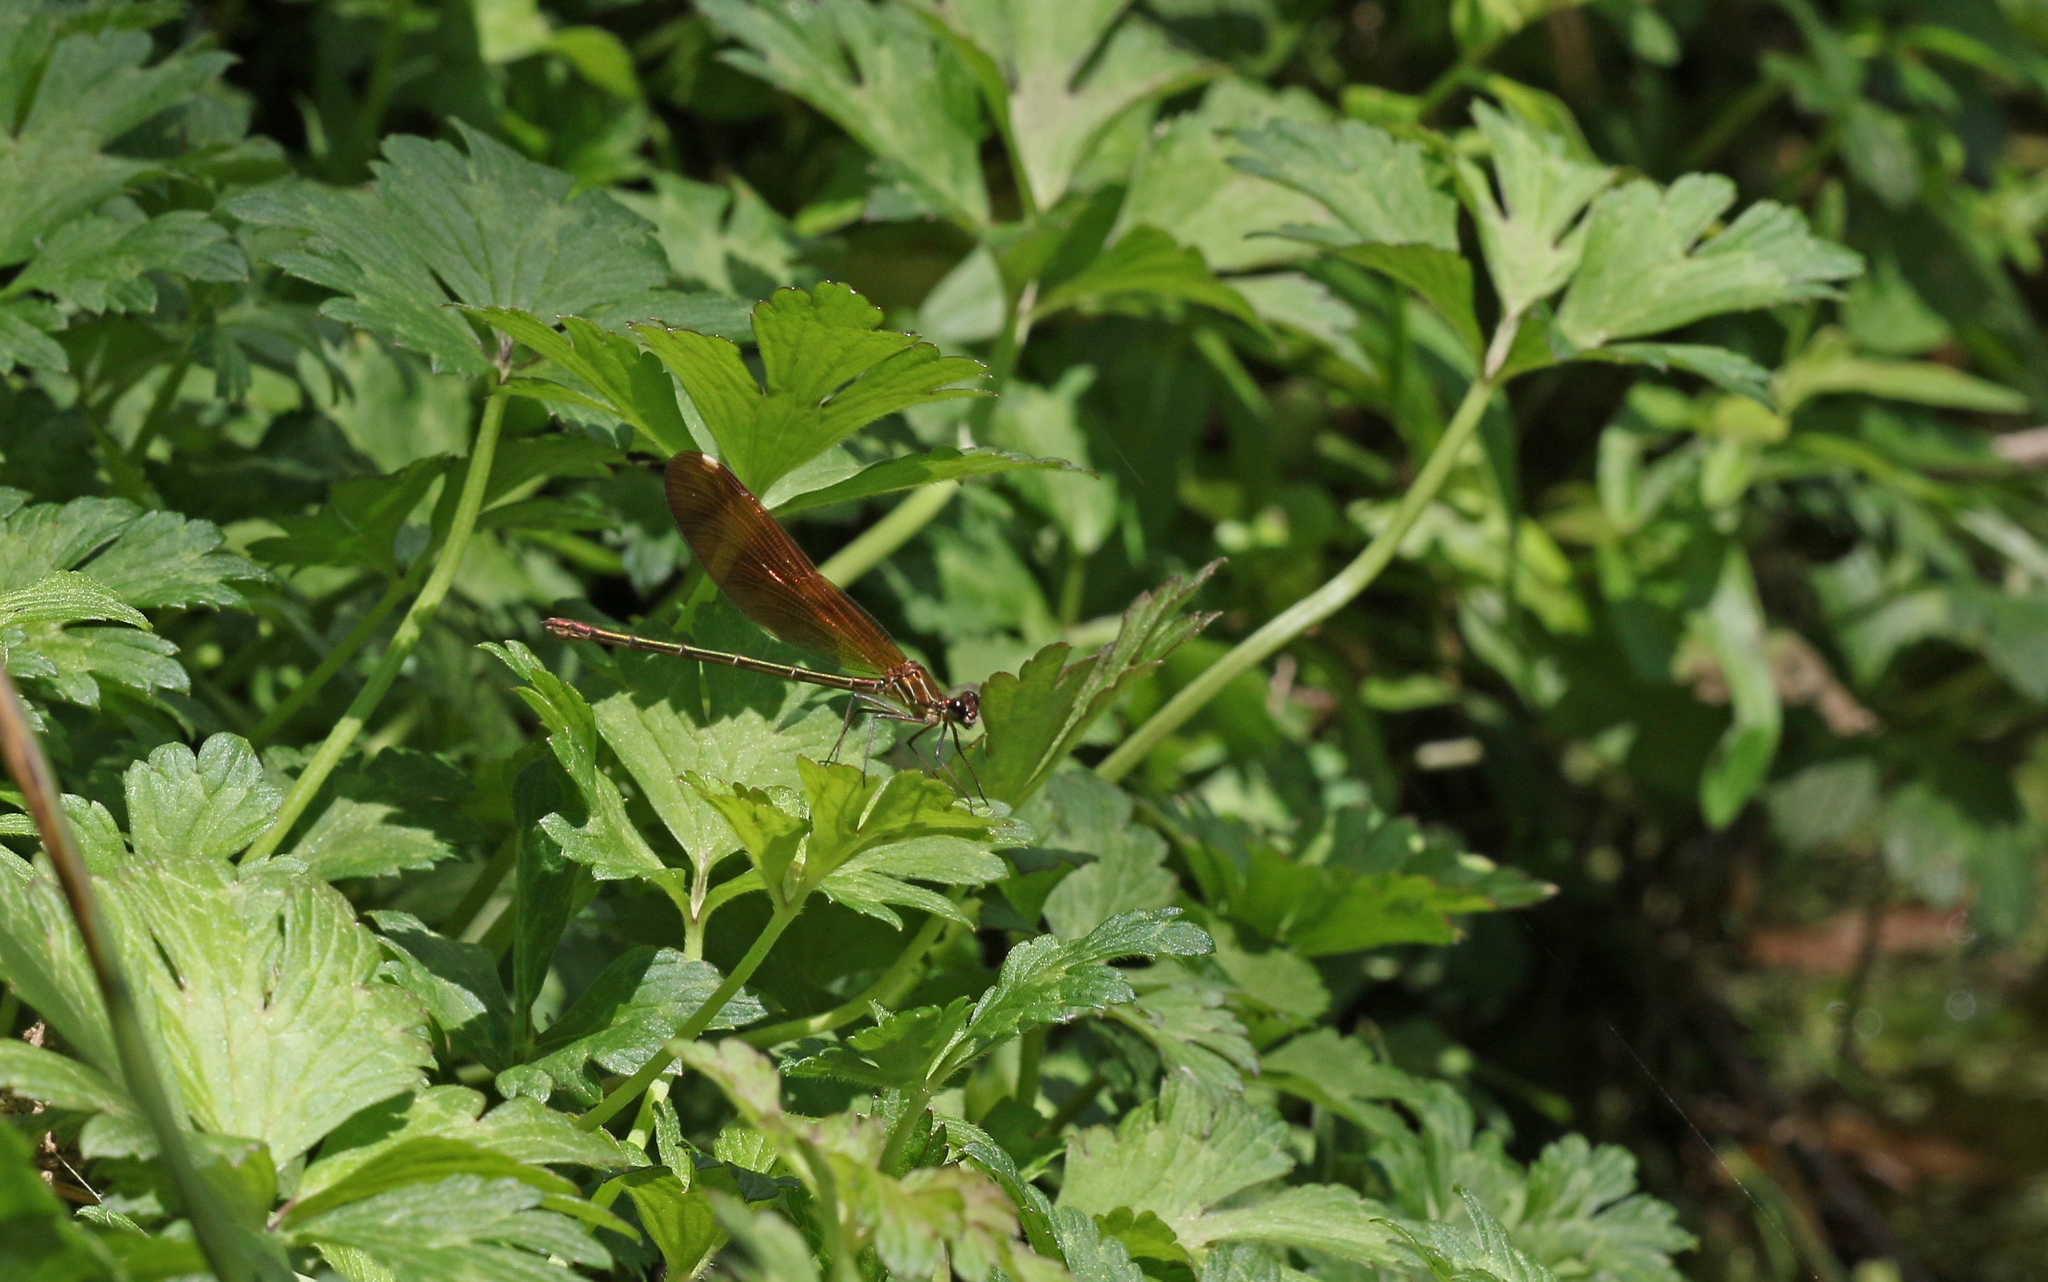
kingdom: Animalia
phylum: Arthropoda
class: Insecta
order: Odonata
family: Calopterygidae
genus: Calopteryx
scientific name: Calopteryx haemorrhoidalis
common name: Copper demoiselle
